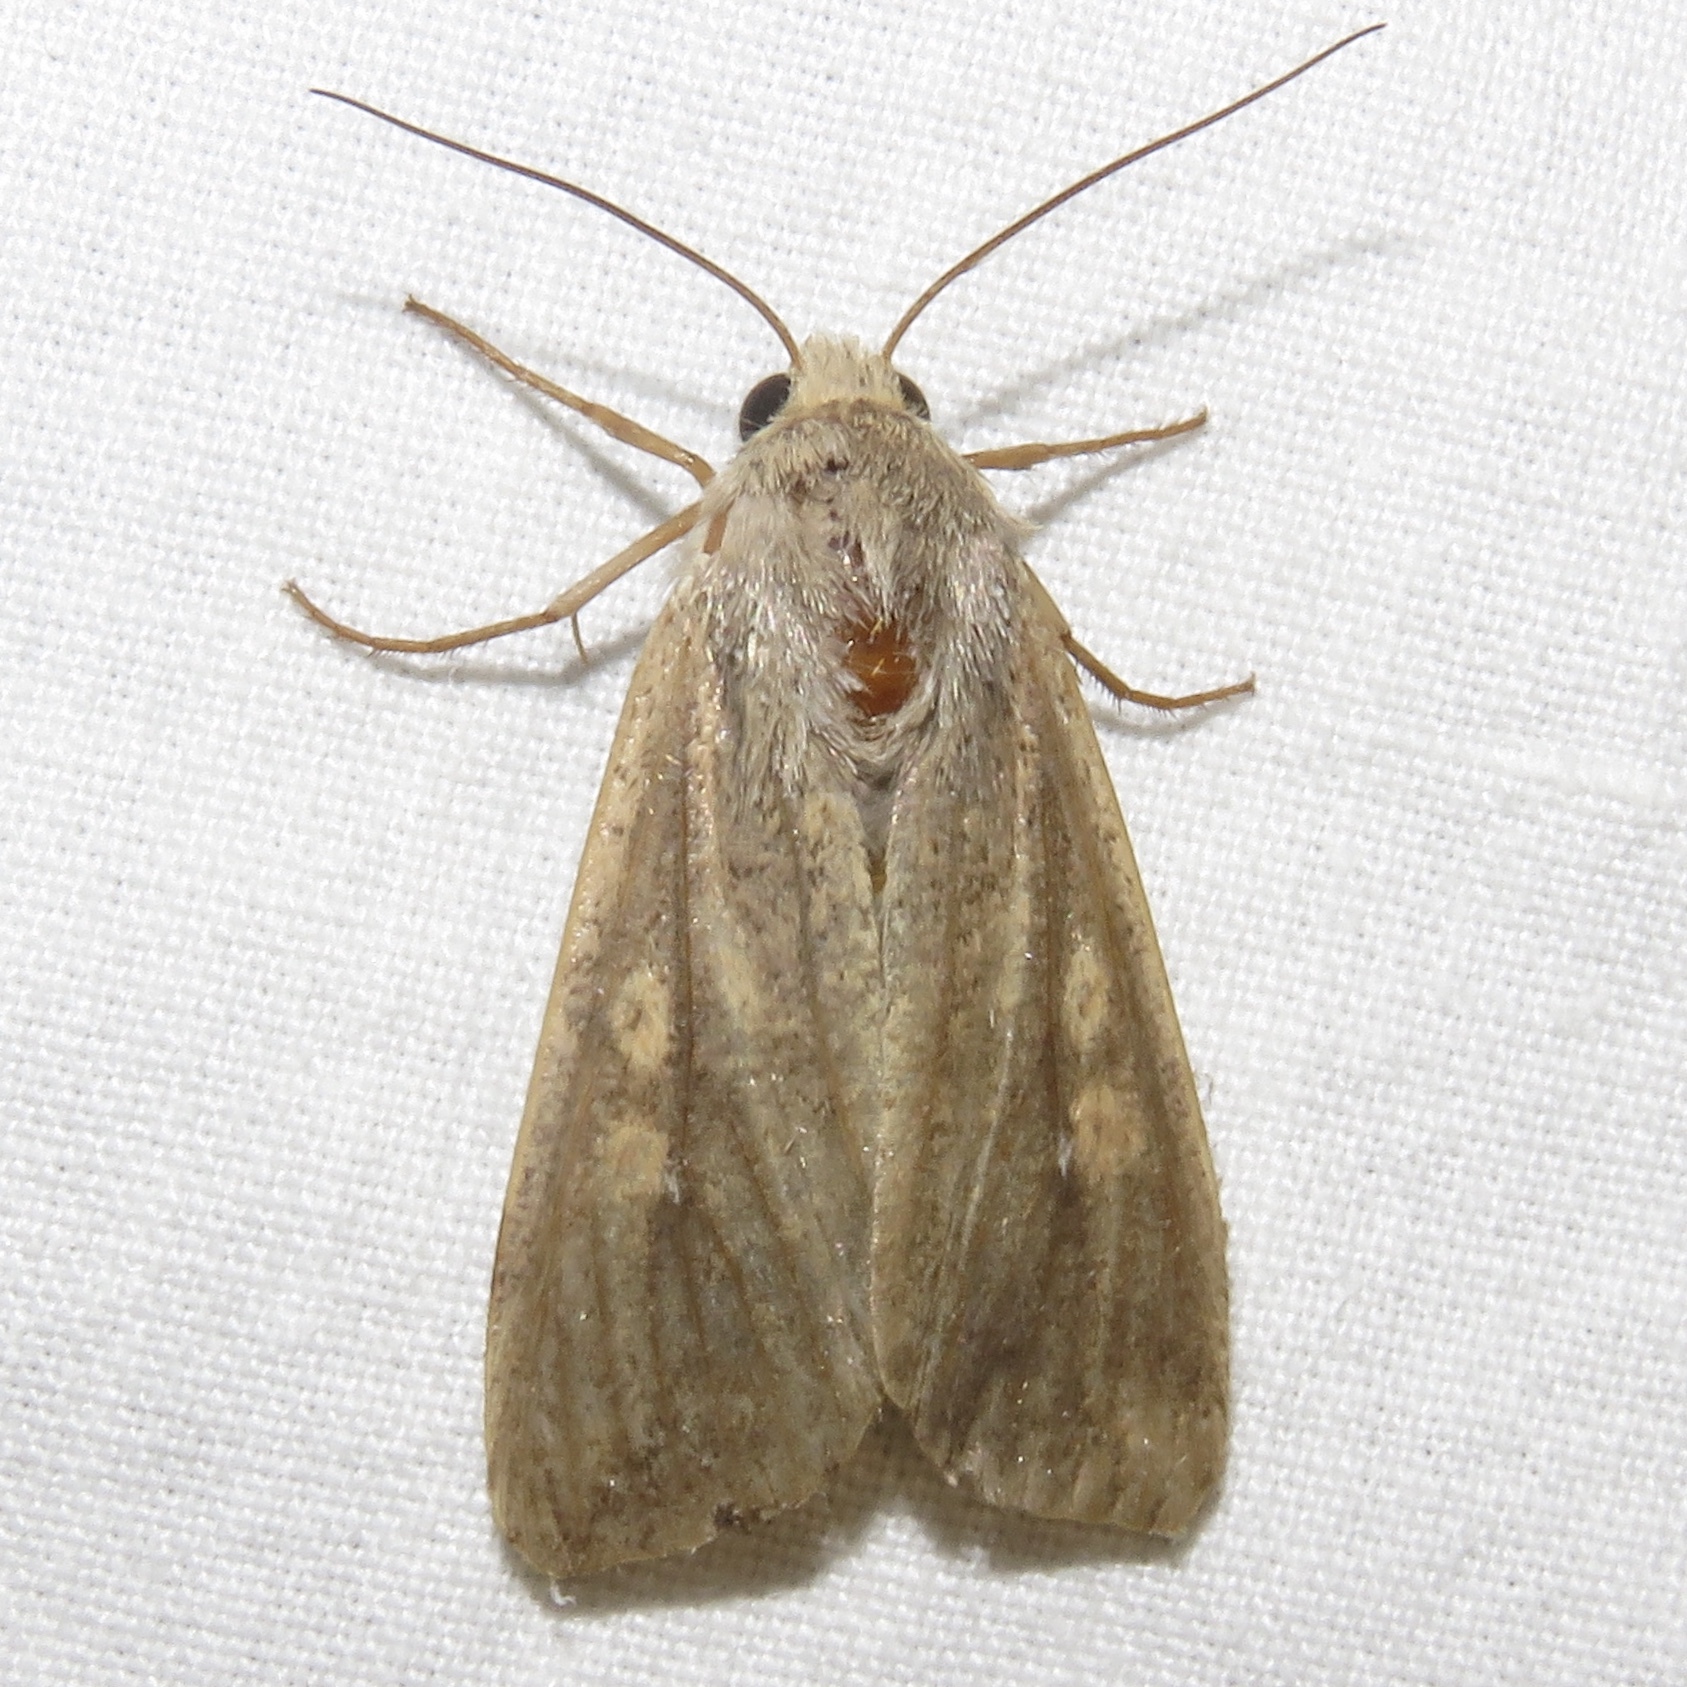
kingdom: Animalia
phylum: Arthropoda
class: Insecta
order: Lepidoptera
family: Noctuidae
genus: Mythimna
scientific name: Mythimna unipuncta
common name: White-speck
